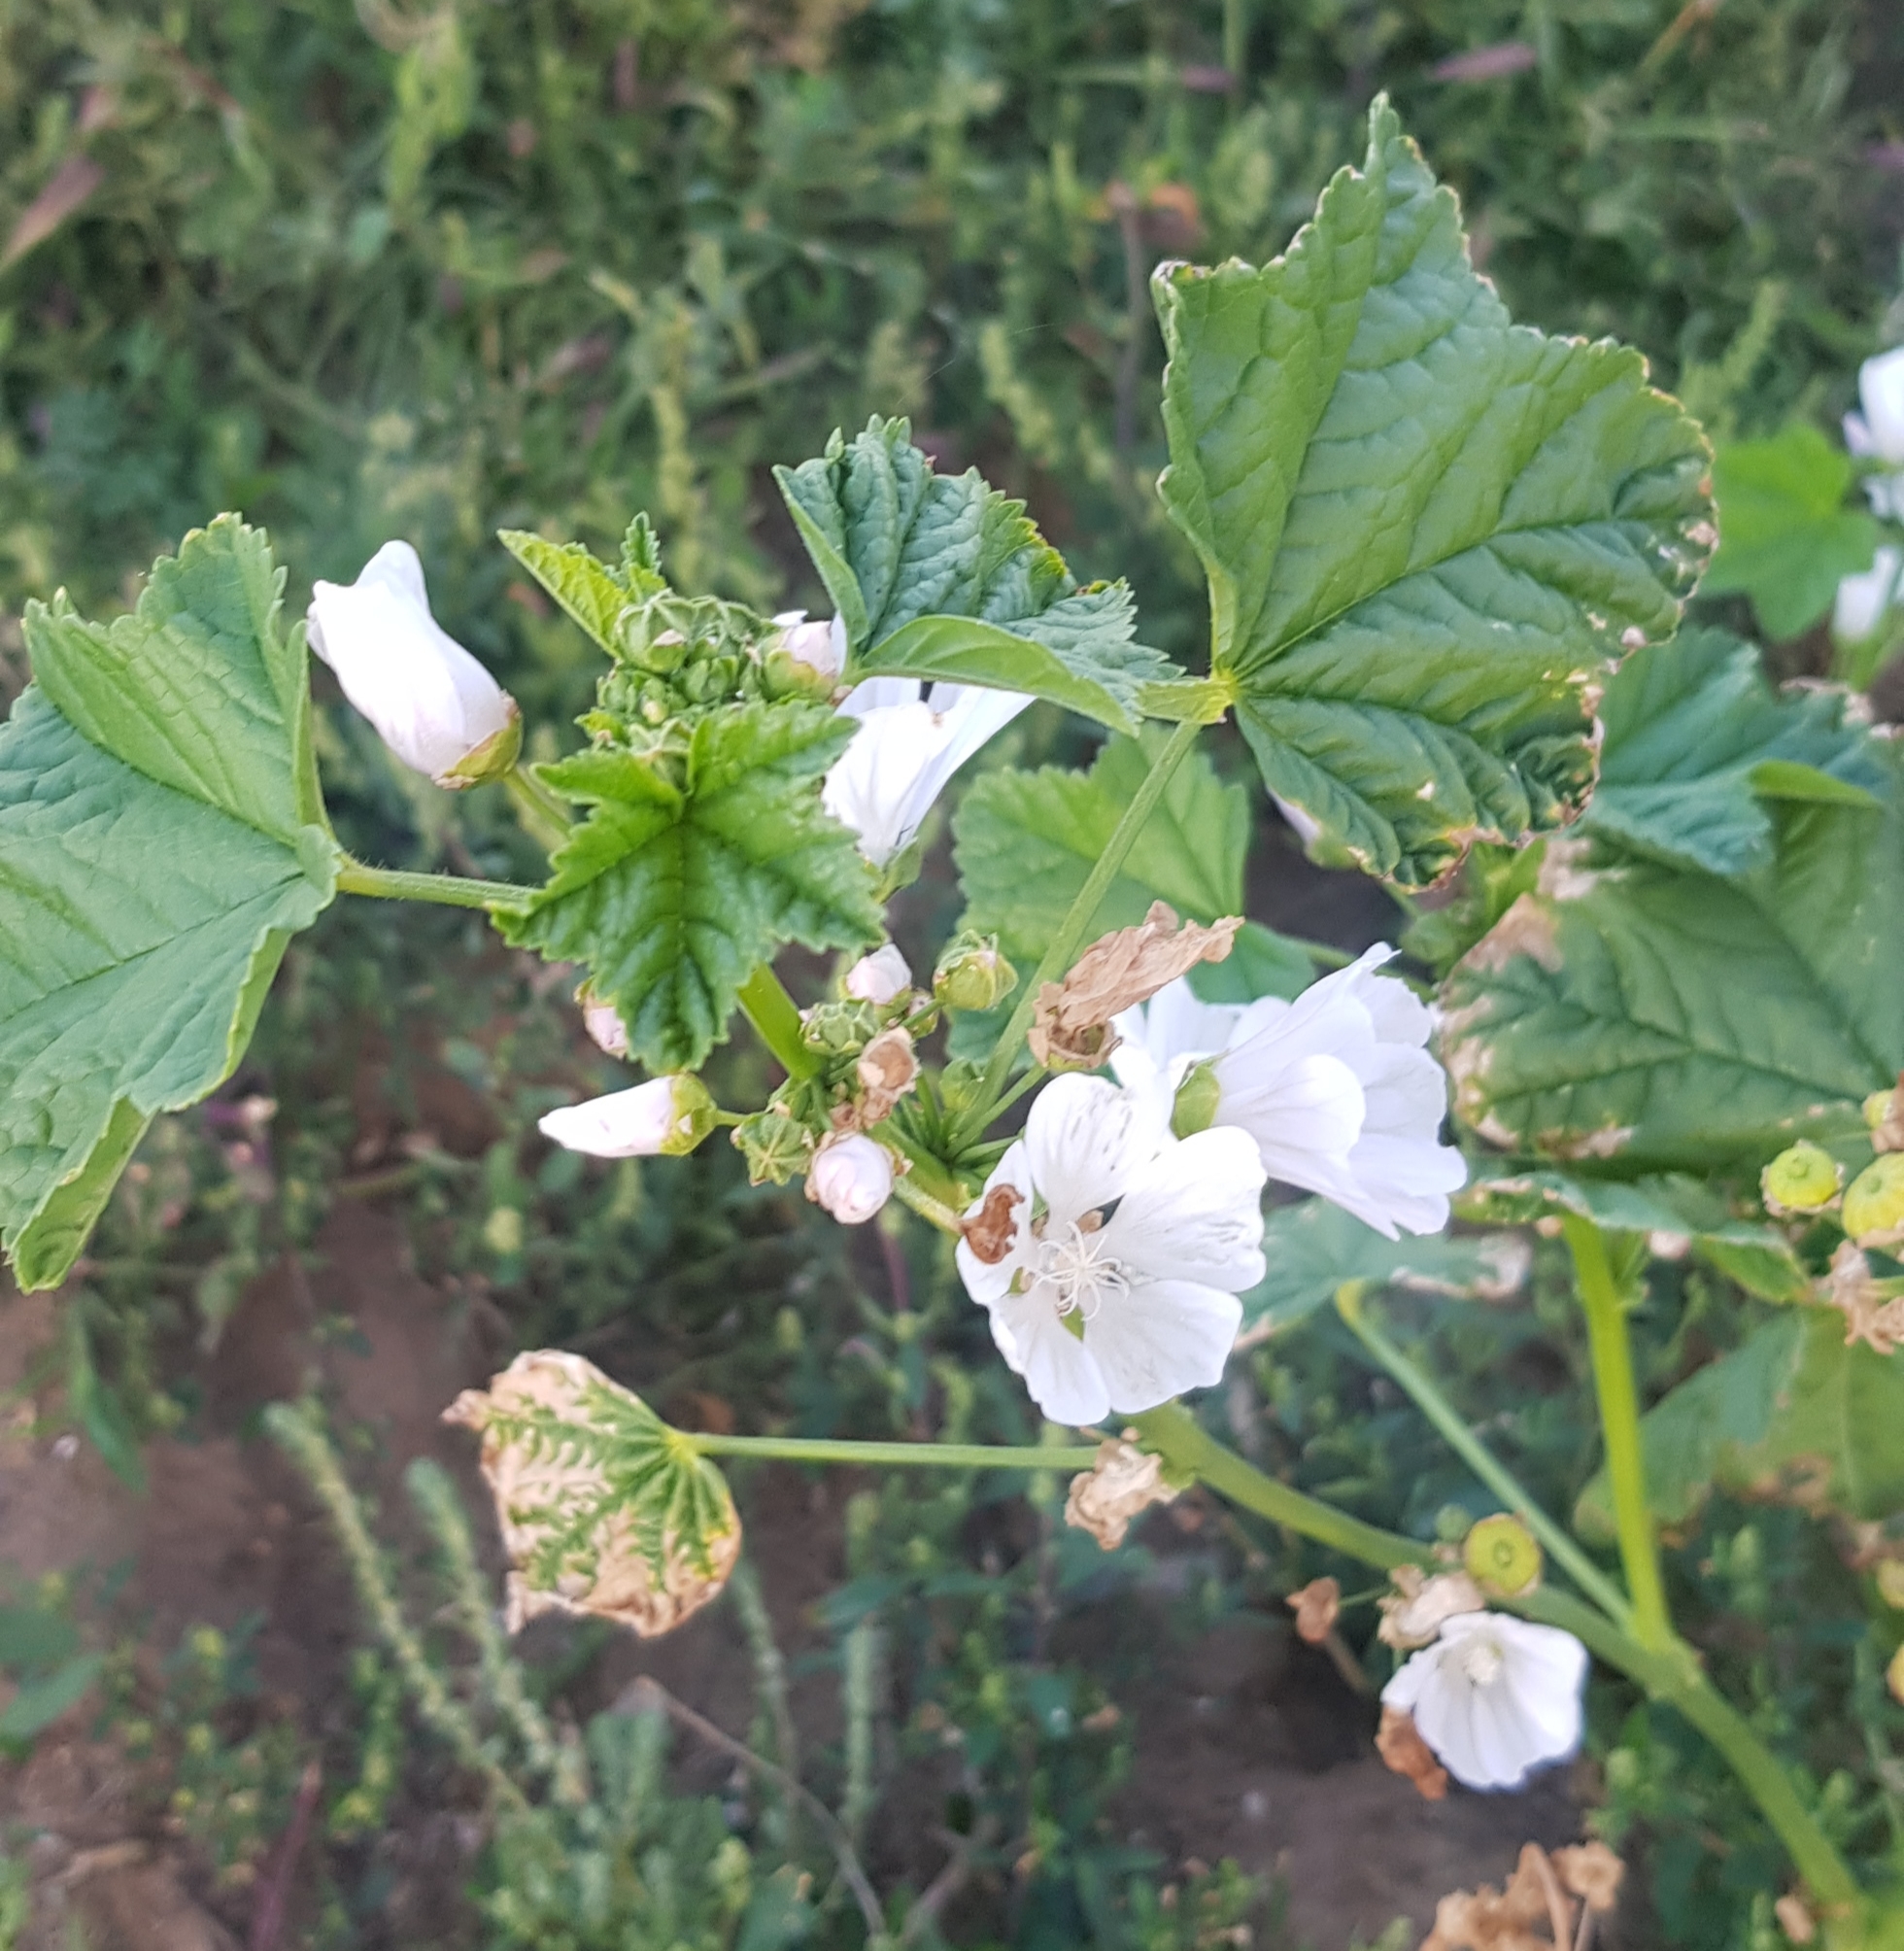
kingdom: Plantae
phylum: Tracheophyta
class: Magnoliopsida
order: Malvales
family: Malvaceae
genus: Malva
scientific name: Malva verticillata
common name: Chinese mallow
